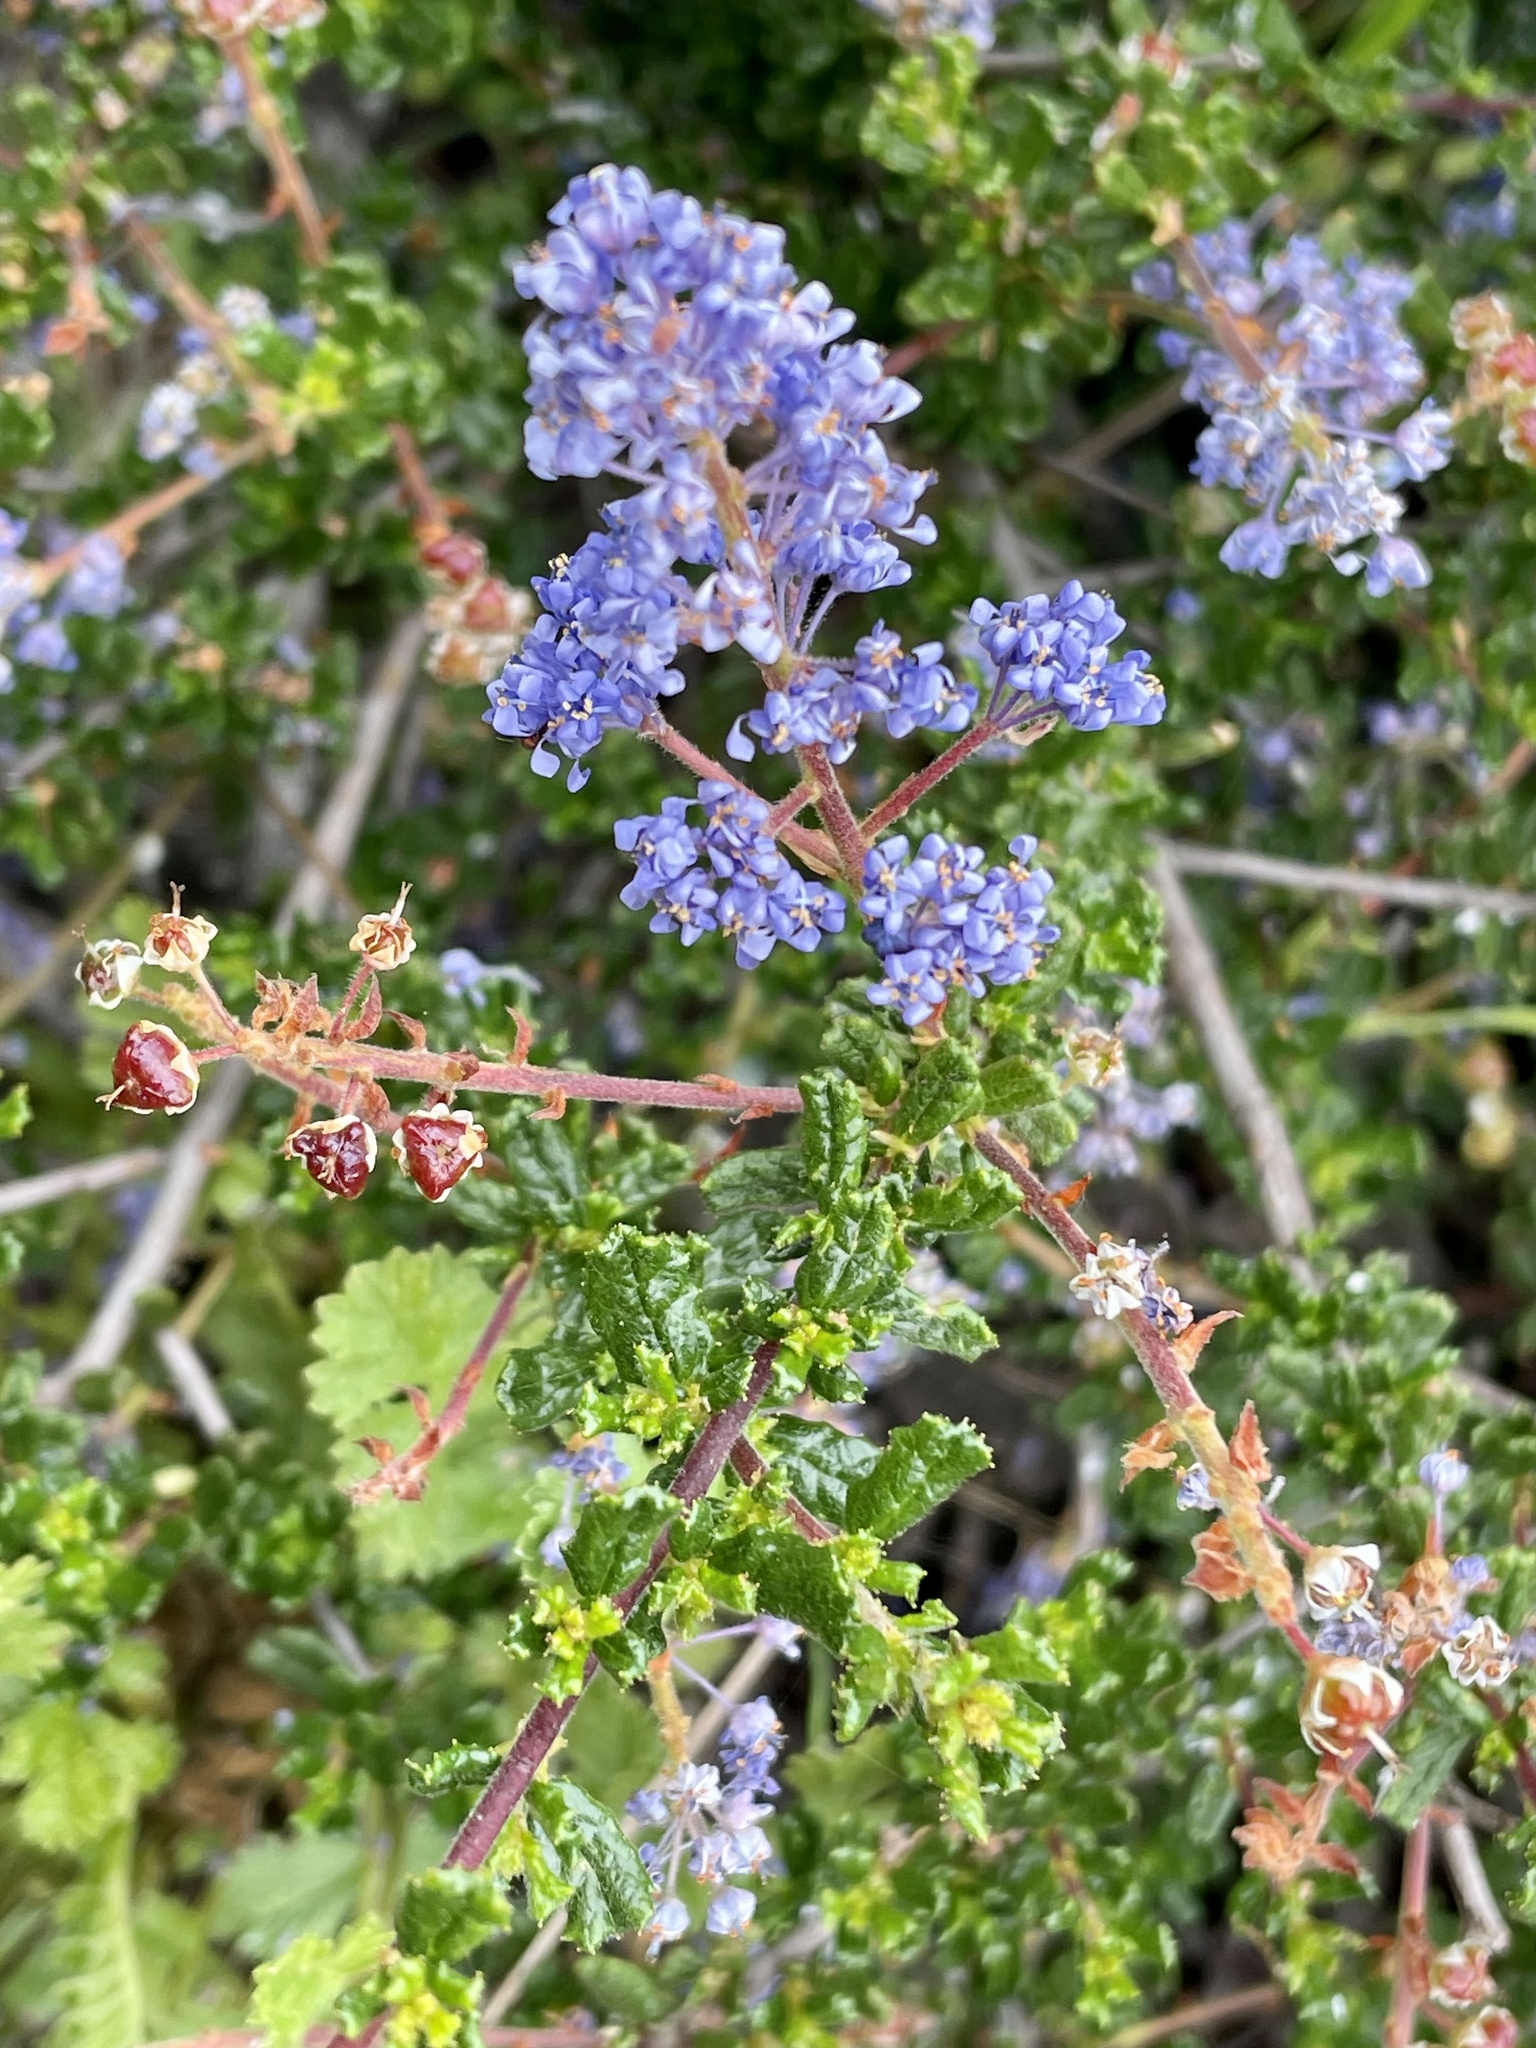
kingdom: Plantae
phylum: Tracheophyta
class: Magnoliopsida
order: Rosales
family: Rhamnaceae
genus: Ceanothus
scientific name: Ceanothus dentatus
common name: Crop-leaf ceanothus
